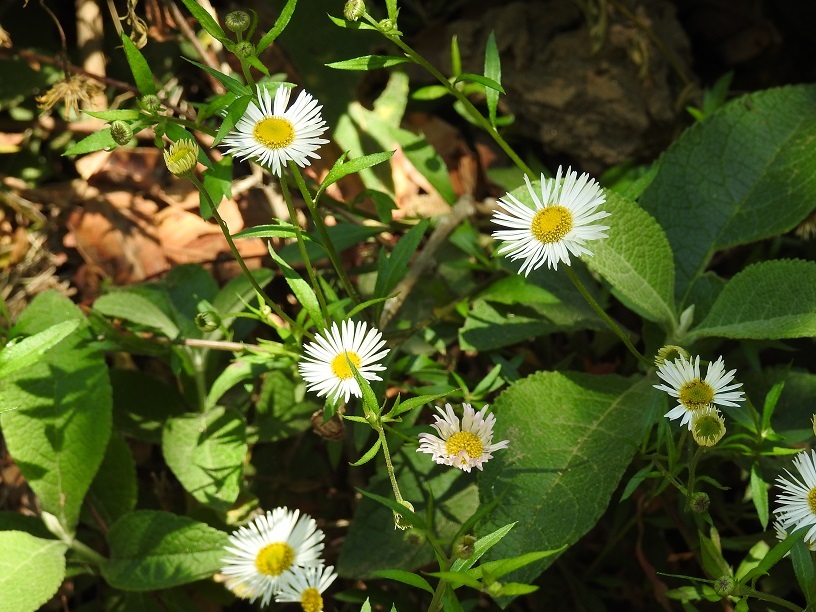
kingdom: Plantae
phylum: Tracheophyta
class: Magnoliopsida
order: Asterales
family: Asteraceae
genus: Erigeron
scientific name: Erigeron karvinskianus
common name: Mexican fleabane
